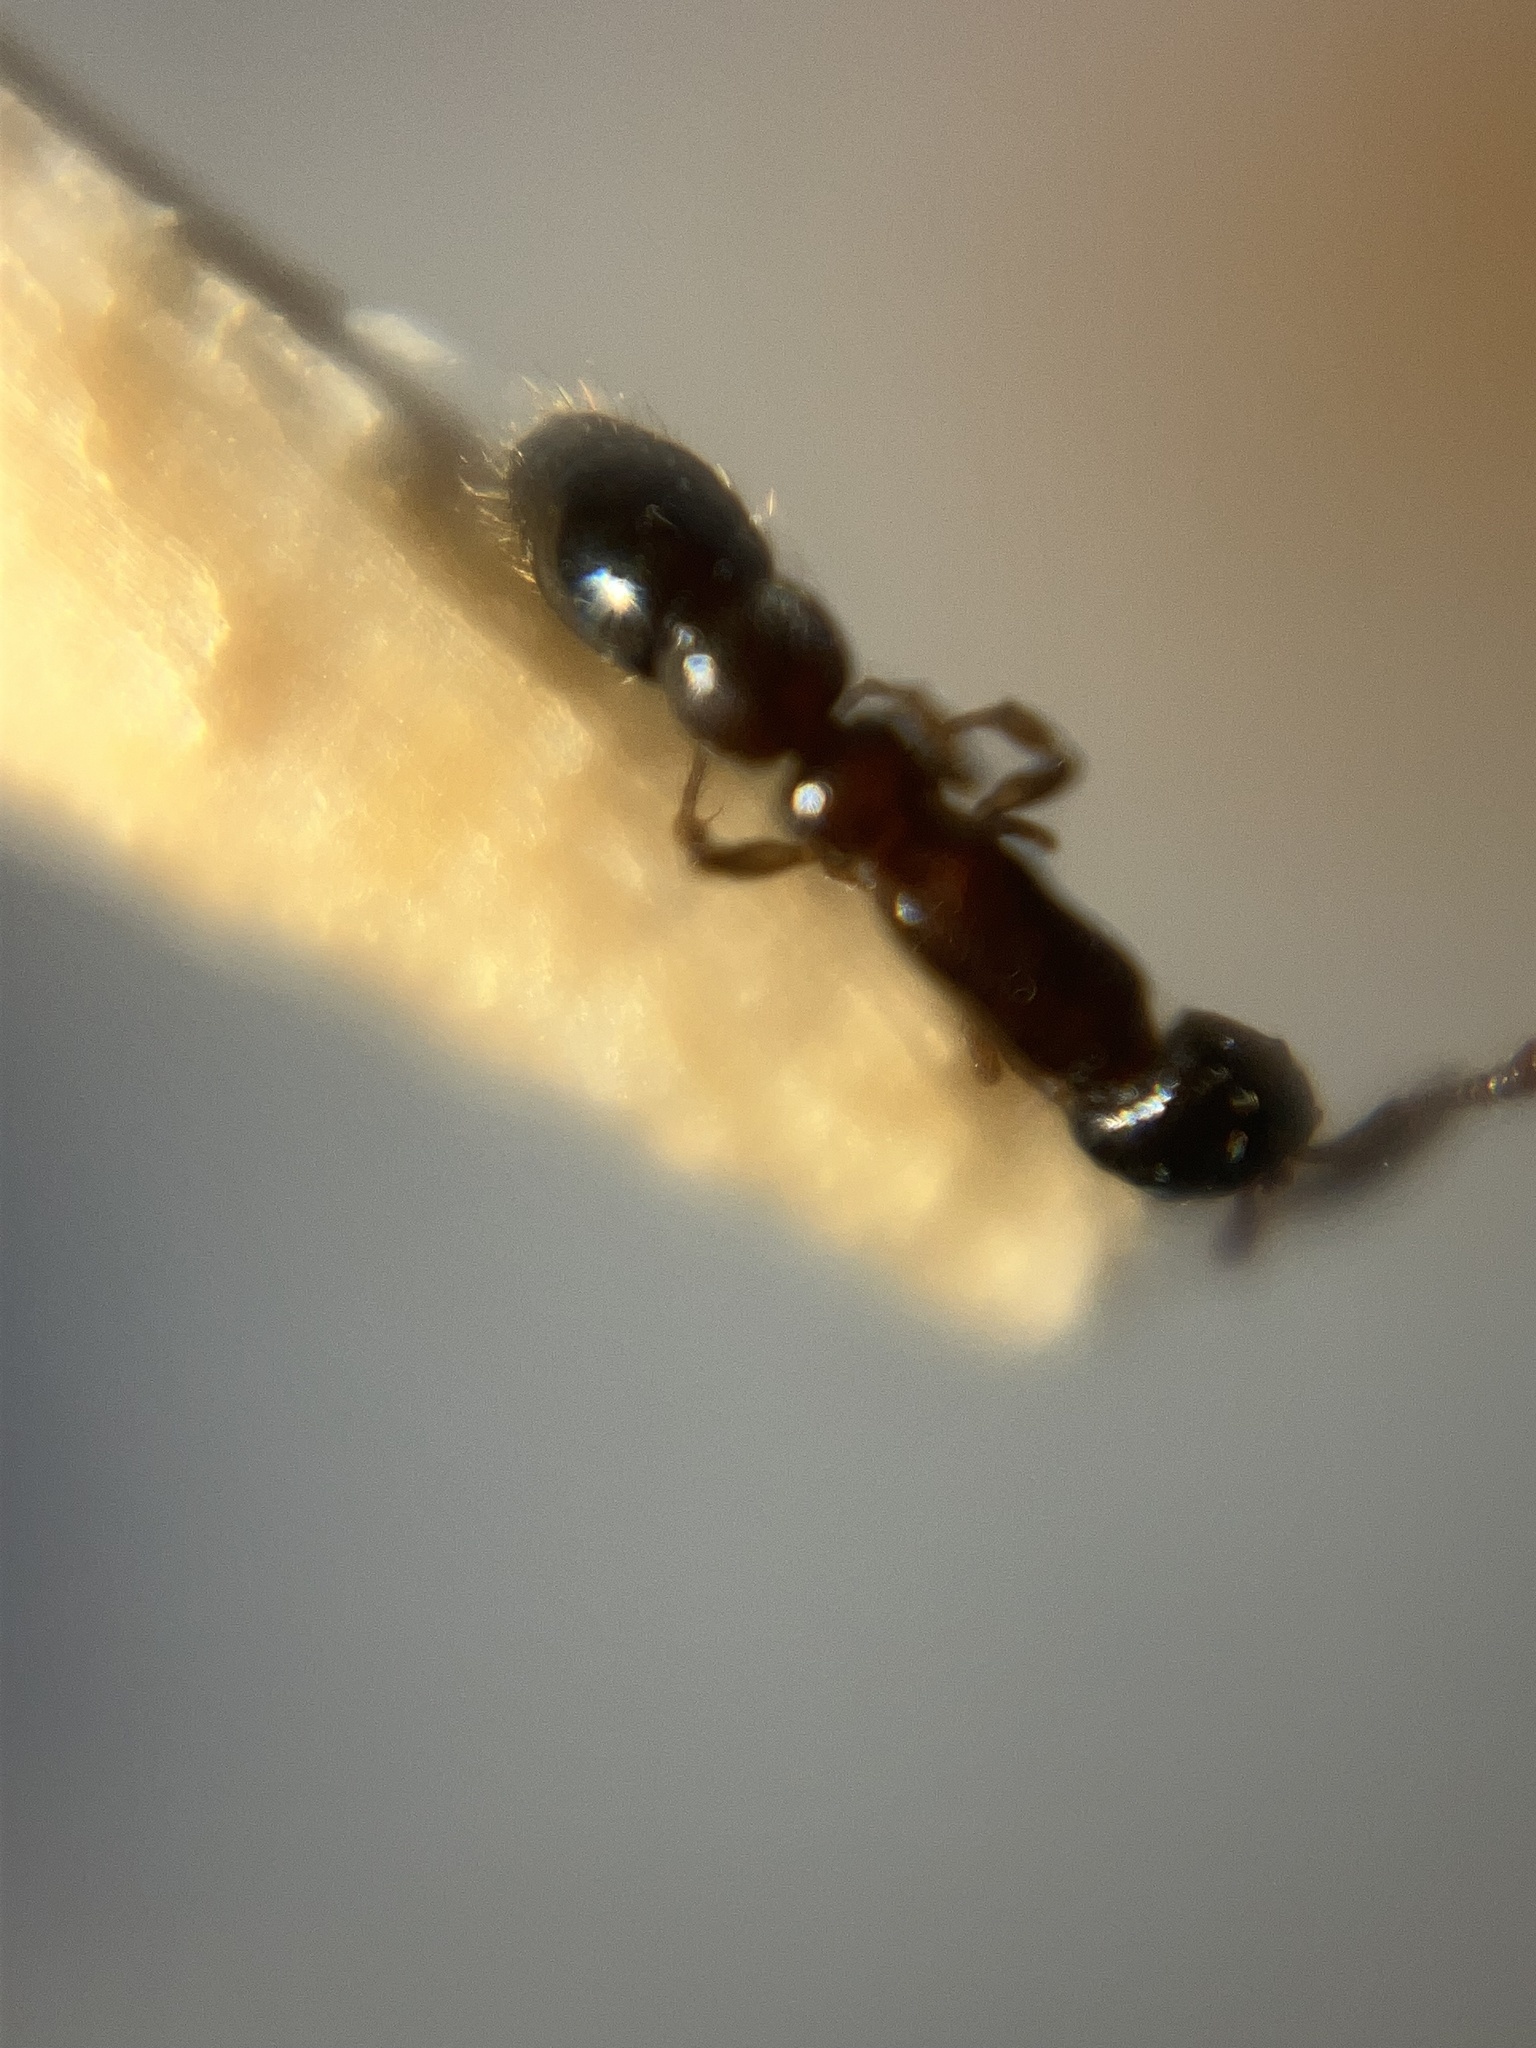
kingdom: Animalia
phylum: Arthropoda
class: Insecta
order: Hymenoptera
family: Formicidae
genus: Lioponera
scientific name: Lioponera
